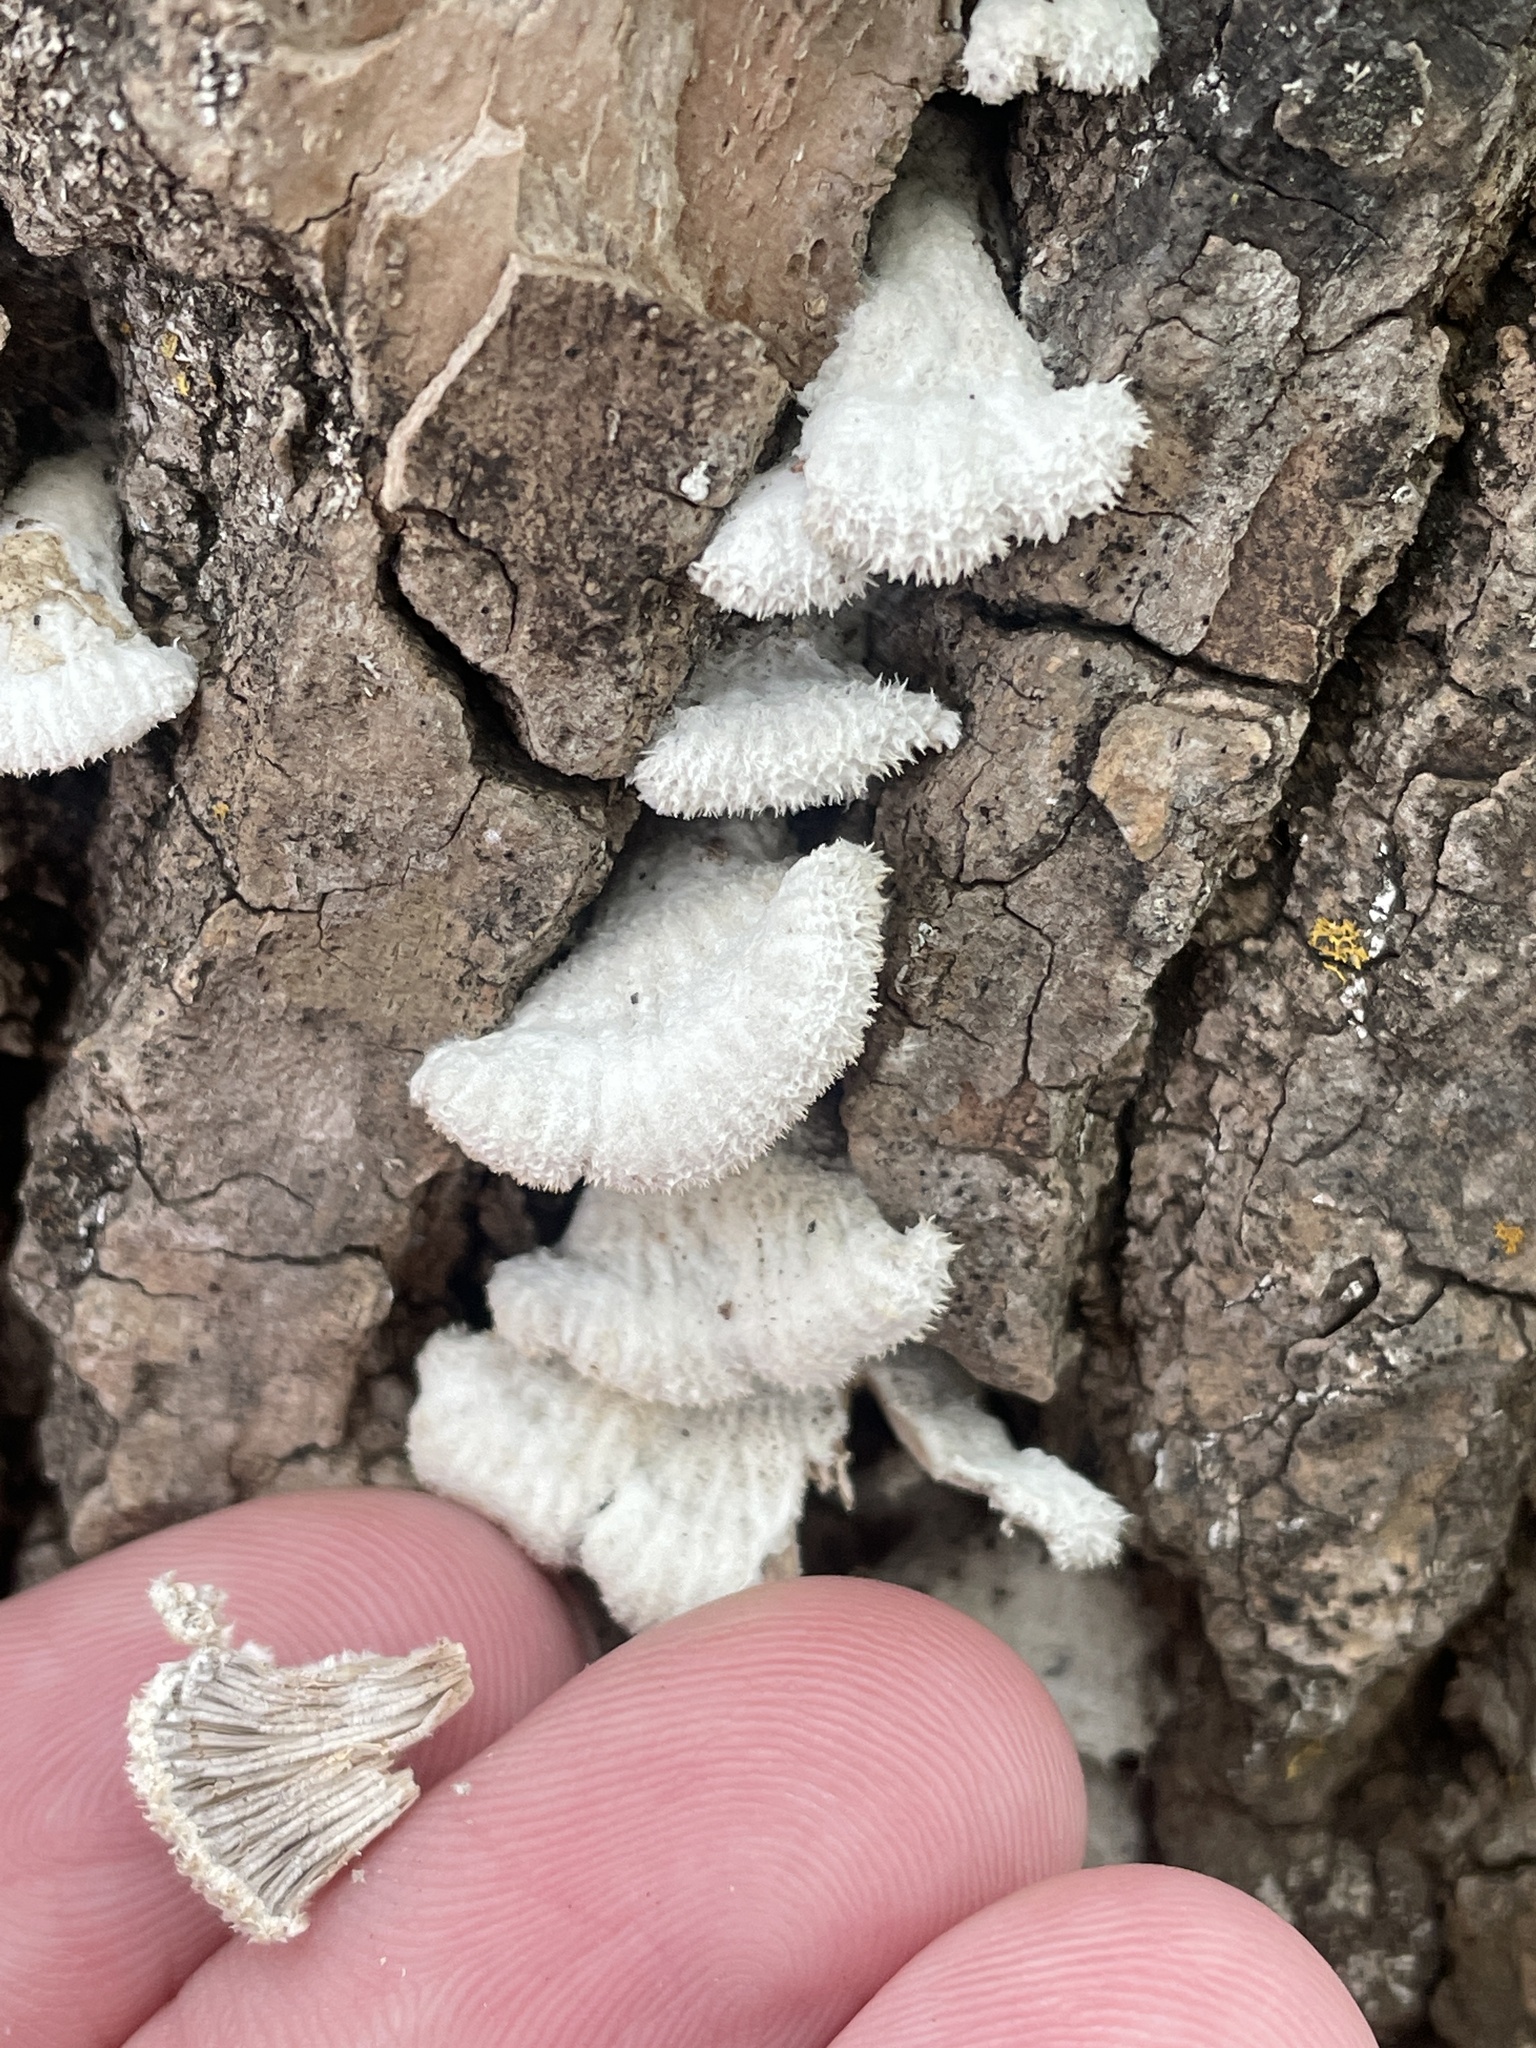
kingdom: Fungi
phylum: Basidiomycota
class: Agaricomycetes
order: Agaricales
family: Schizophyllaceae
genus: Schizophyllum
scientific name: Schizophyllum commune
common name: Common porecrust
